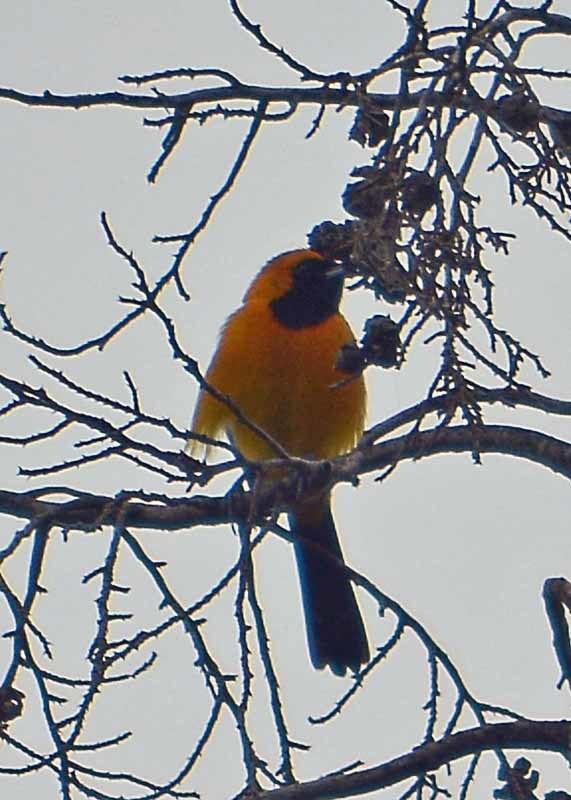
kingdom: Animalia
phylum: Chordata
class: Aves
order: Passeriformes
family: Icteridae
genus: Icterus
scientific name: Icterus cucullatus
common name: Hooded oriole
